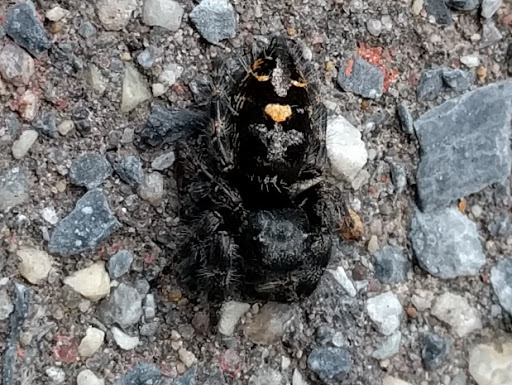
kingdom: Animalia
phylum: Arthropoda
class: Arachnida
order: Araneae
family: Salticidae
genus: Phidippus
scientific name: Phidippus audax
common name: Bold jumper
